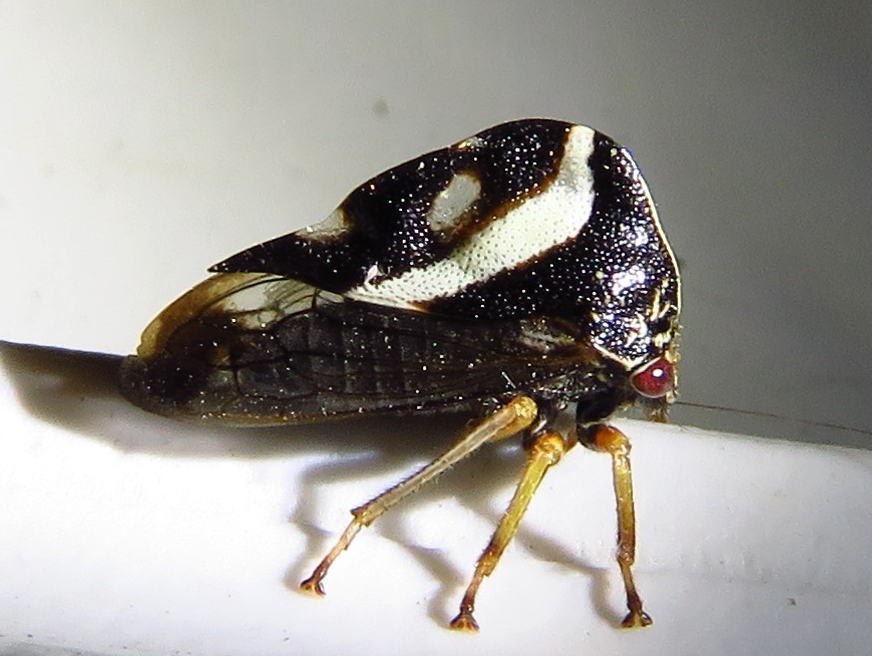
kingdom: Animalia
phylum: Arthropoda
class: Insecta
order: Hemiptera
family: Membracidae
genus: Smilia
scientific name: Smilia camelus
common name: Camel treehopper
